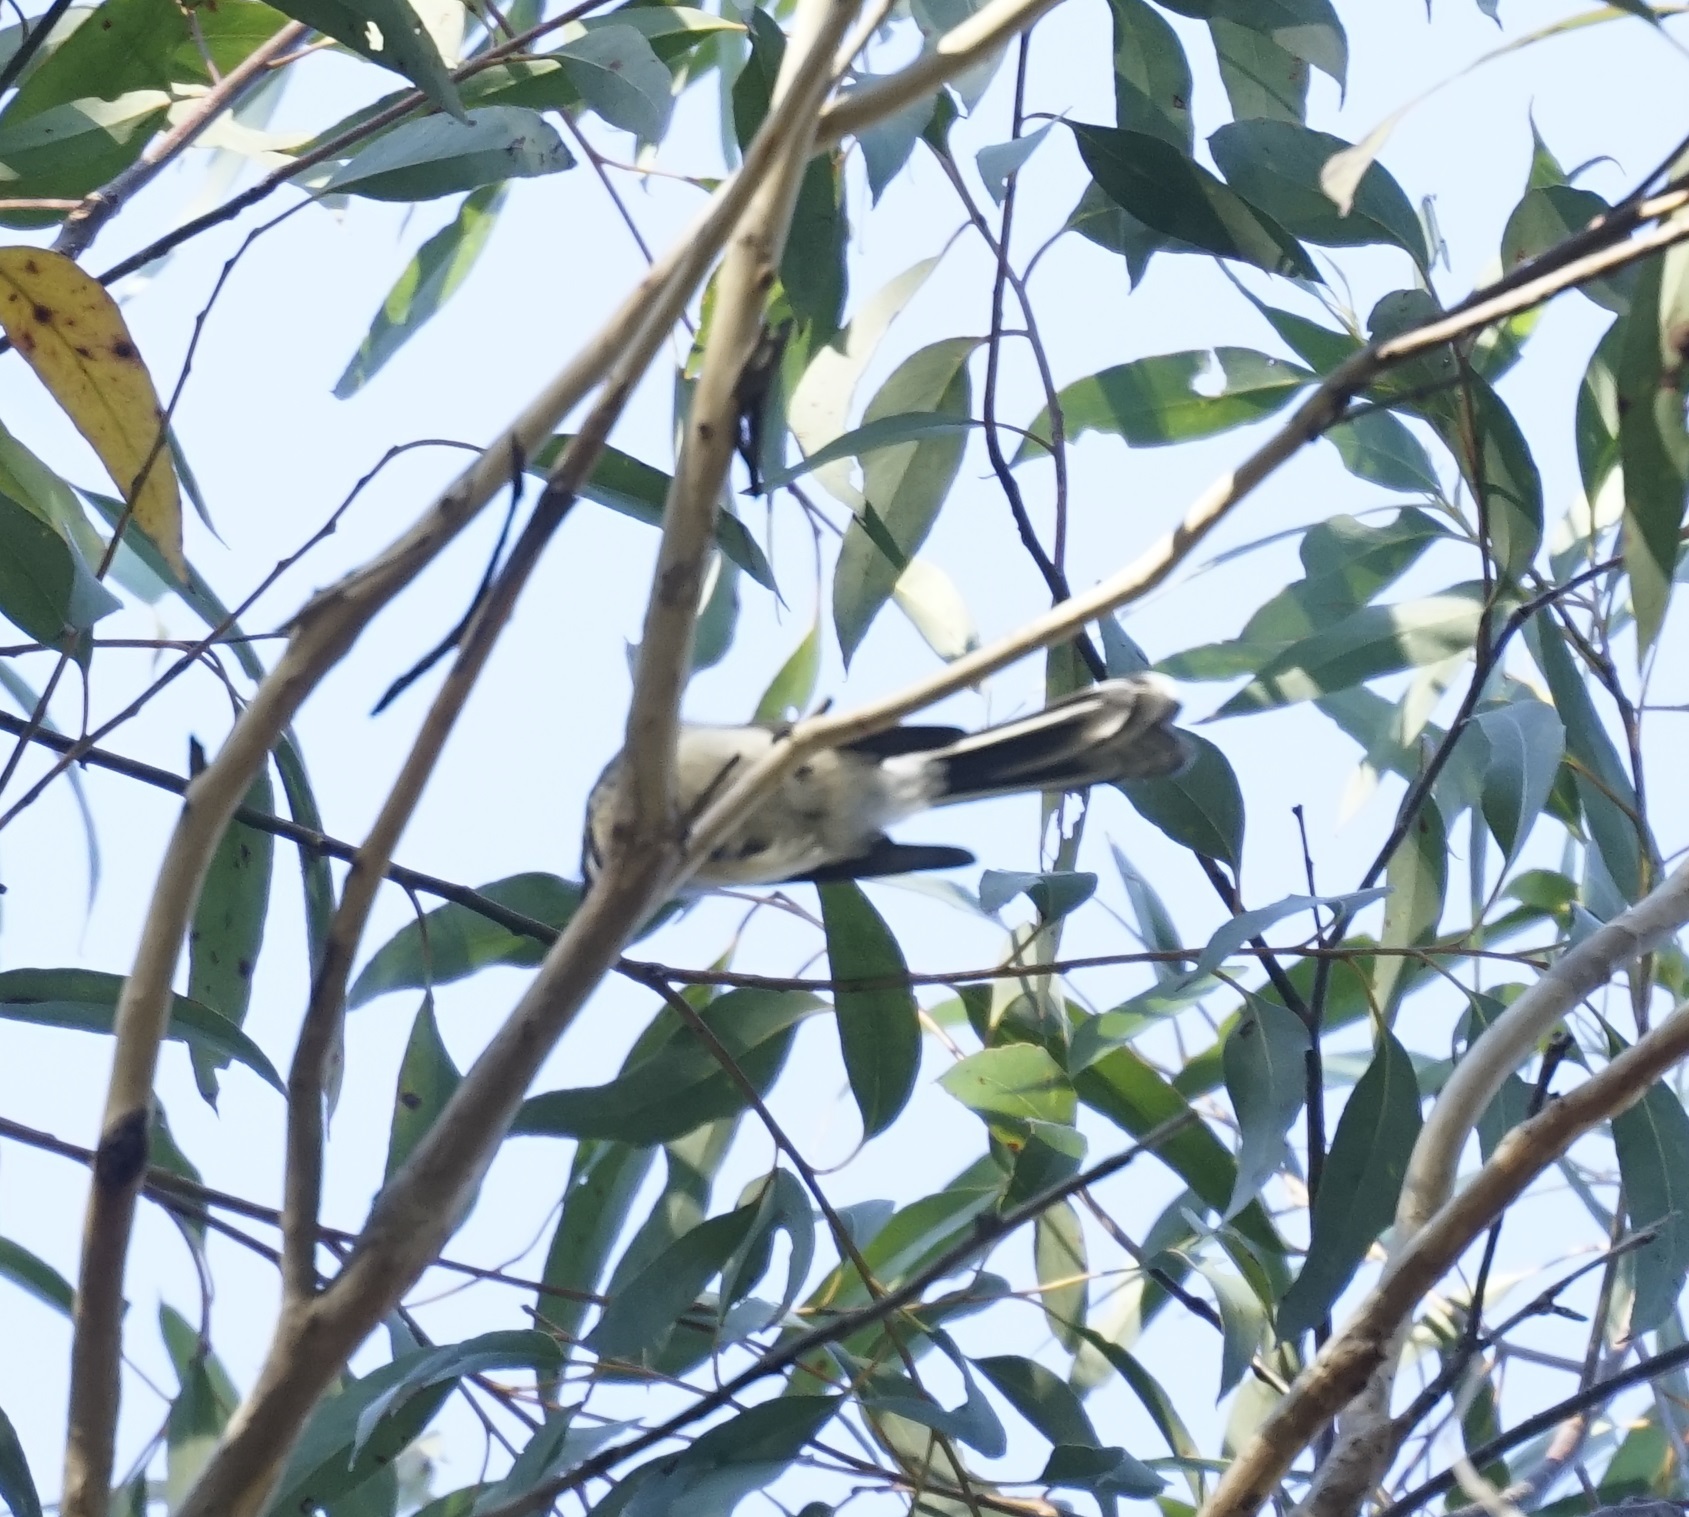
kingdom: Animalia
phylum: Chordata
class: Aves
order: Passeriformes
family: Rhipiduridae
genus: Rhipidura
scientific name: Rhipidura albiscapa
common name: Grey fantail
